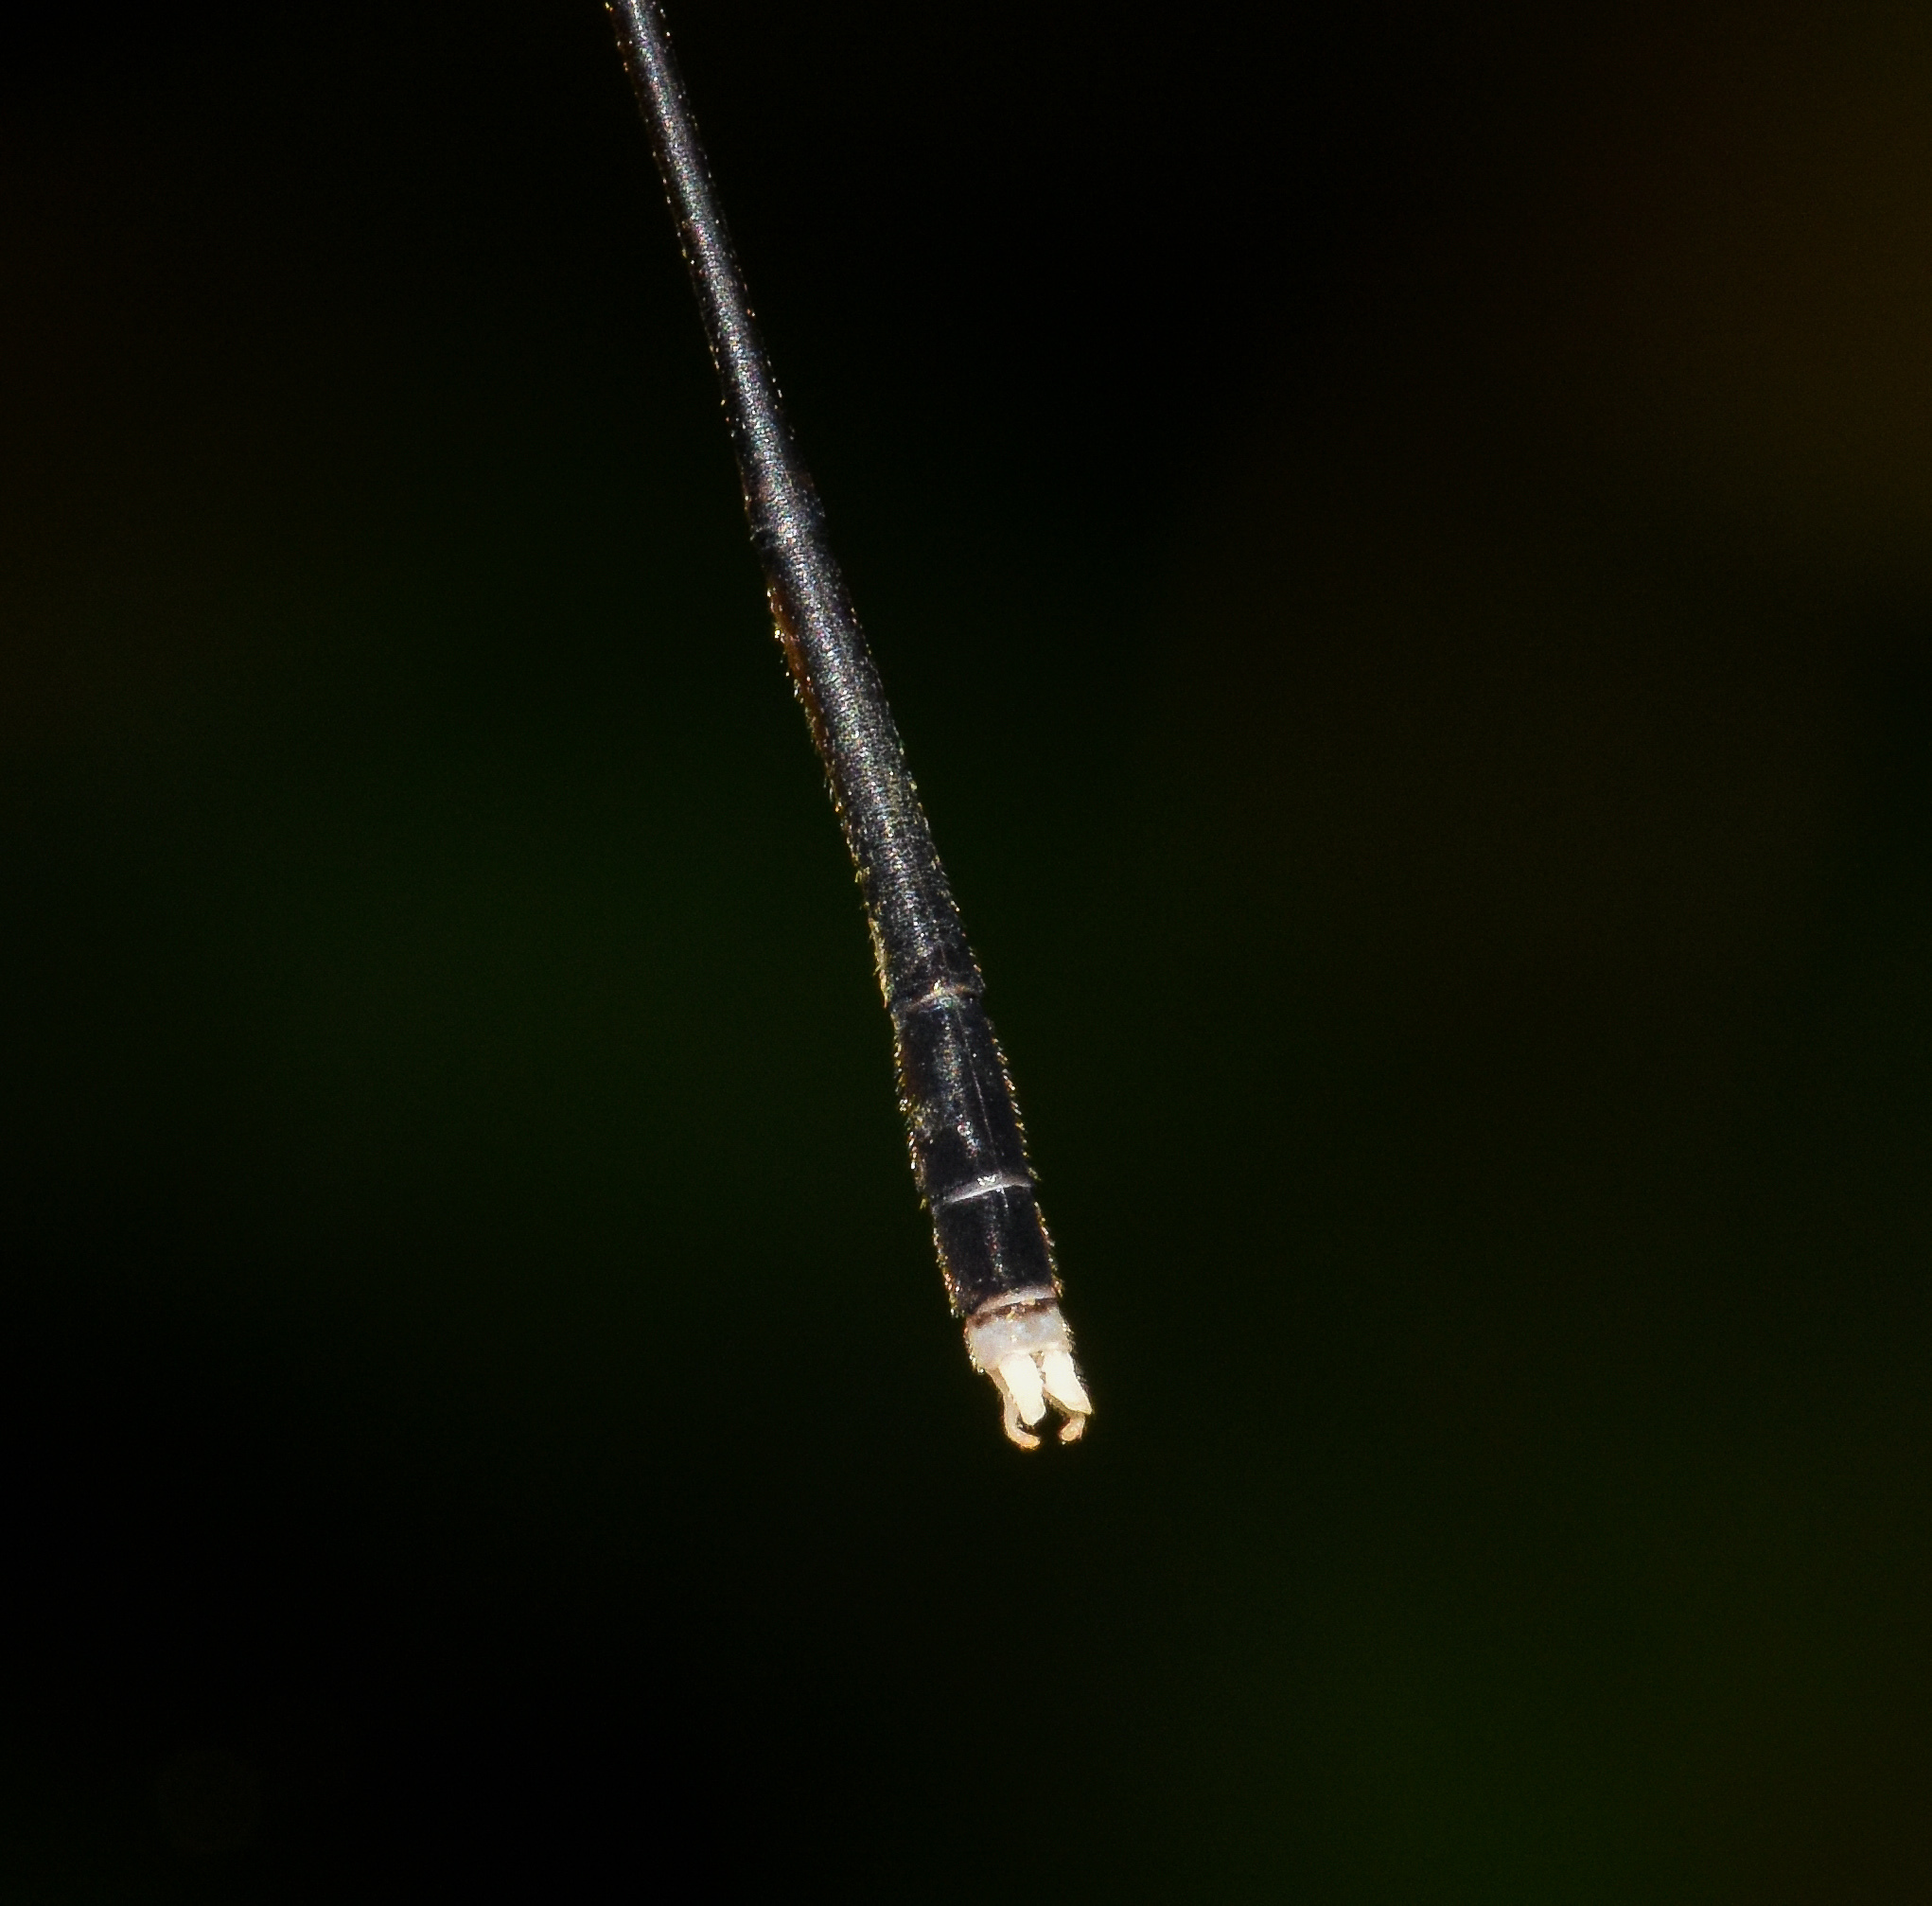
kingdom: Animalia
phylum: Arthropoda
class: Insecta
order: Odonata
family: Platycnemididae
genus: Coeliccia
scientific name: Coeliccia bimaculata
